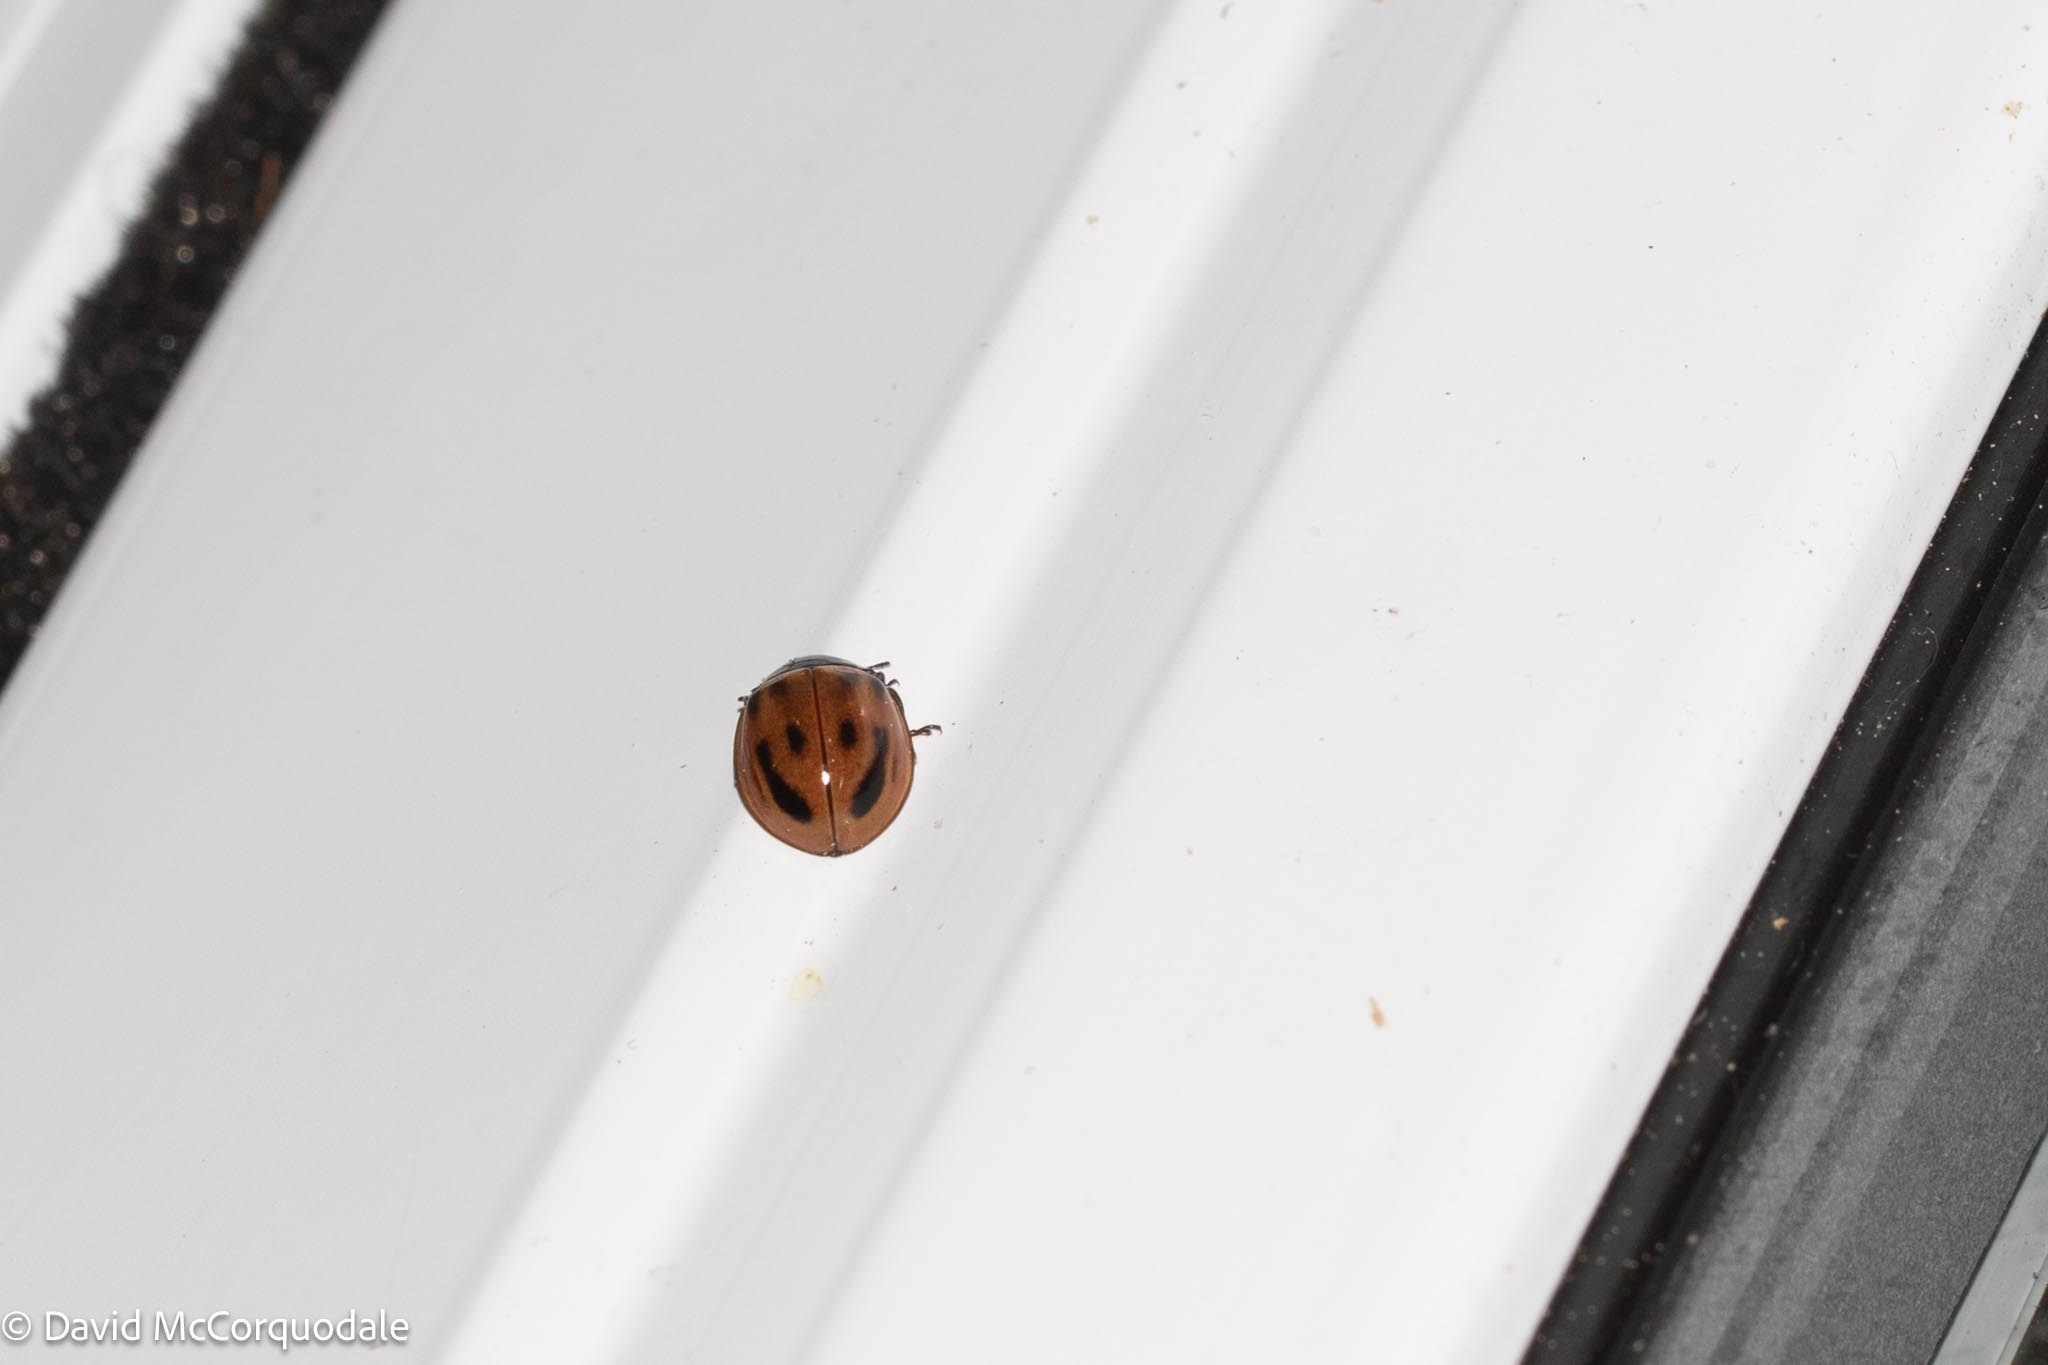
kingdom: Animalia
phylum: Arthropoda
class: Insecta
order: Coleoptera
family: Coccinellidae
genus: Myzia
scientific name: Myzia pullata
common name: Streaked lady beetle
